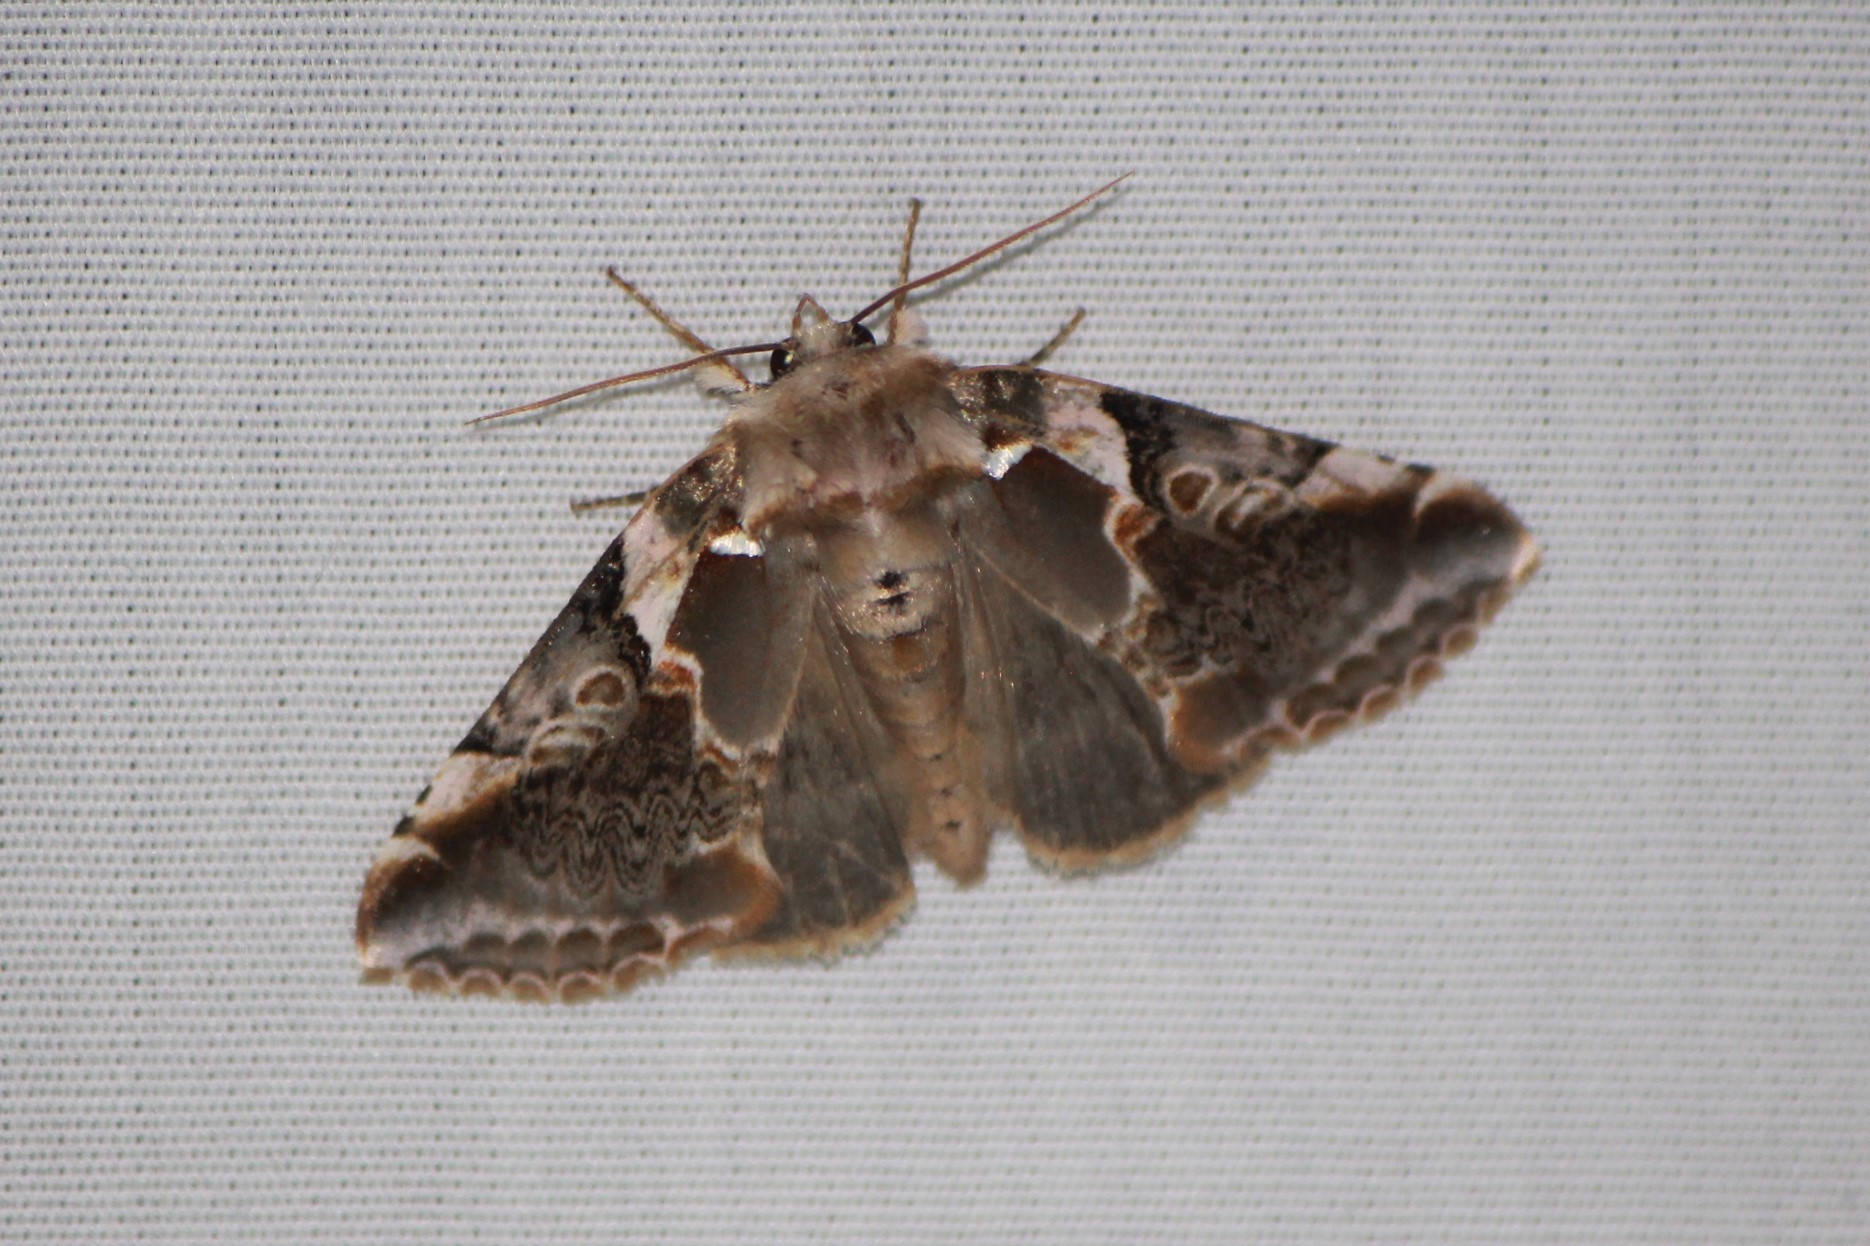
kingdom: Animalia
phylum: Arthropoda
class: Insecta
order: Lepidoptera
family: Drepanidae
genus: Habrosyne
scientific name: Habrosyne gloriosa
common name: Glorious habrosyne moth
